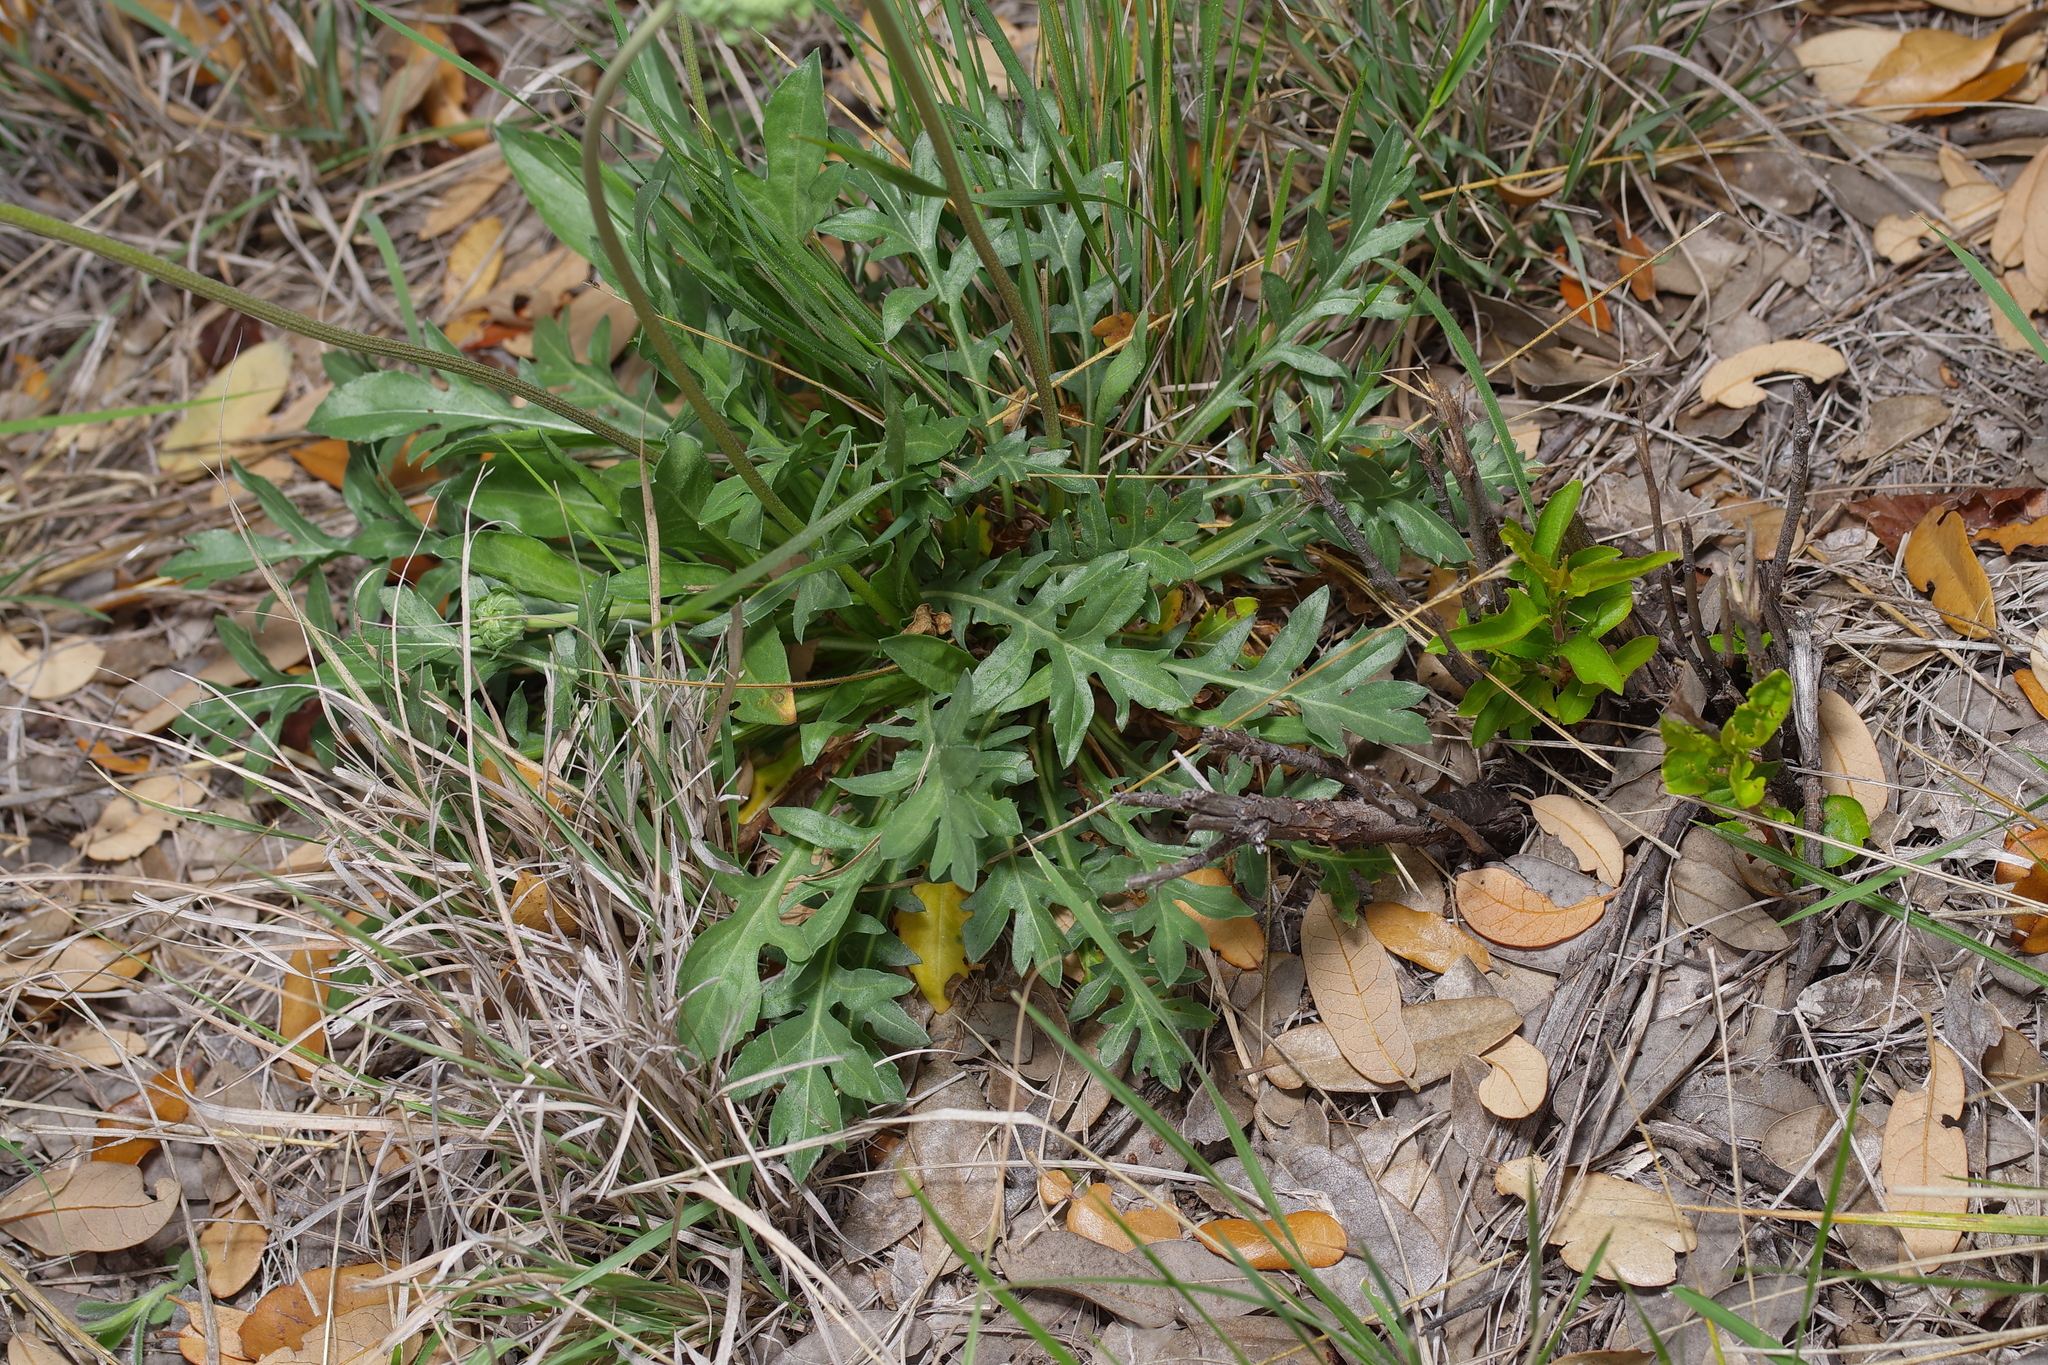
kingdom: Plantae
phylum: Tracheophyta
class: Magnoliopsida
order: Asterales
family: Asteraceae
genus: Gaillardia
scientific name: Gaillardia suavis
